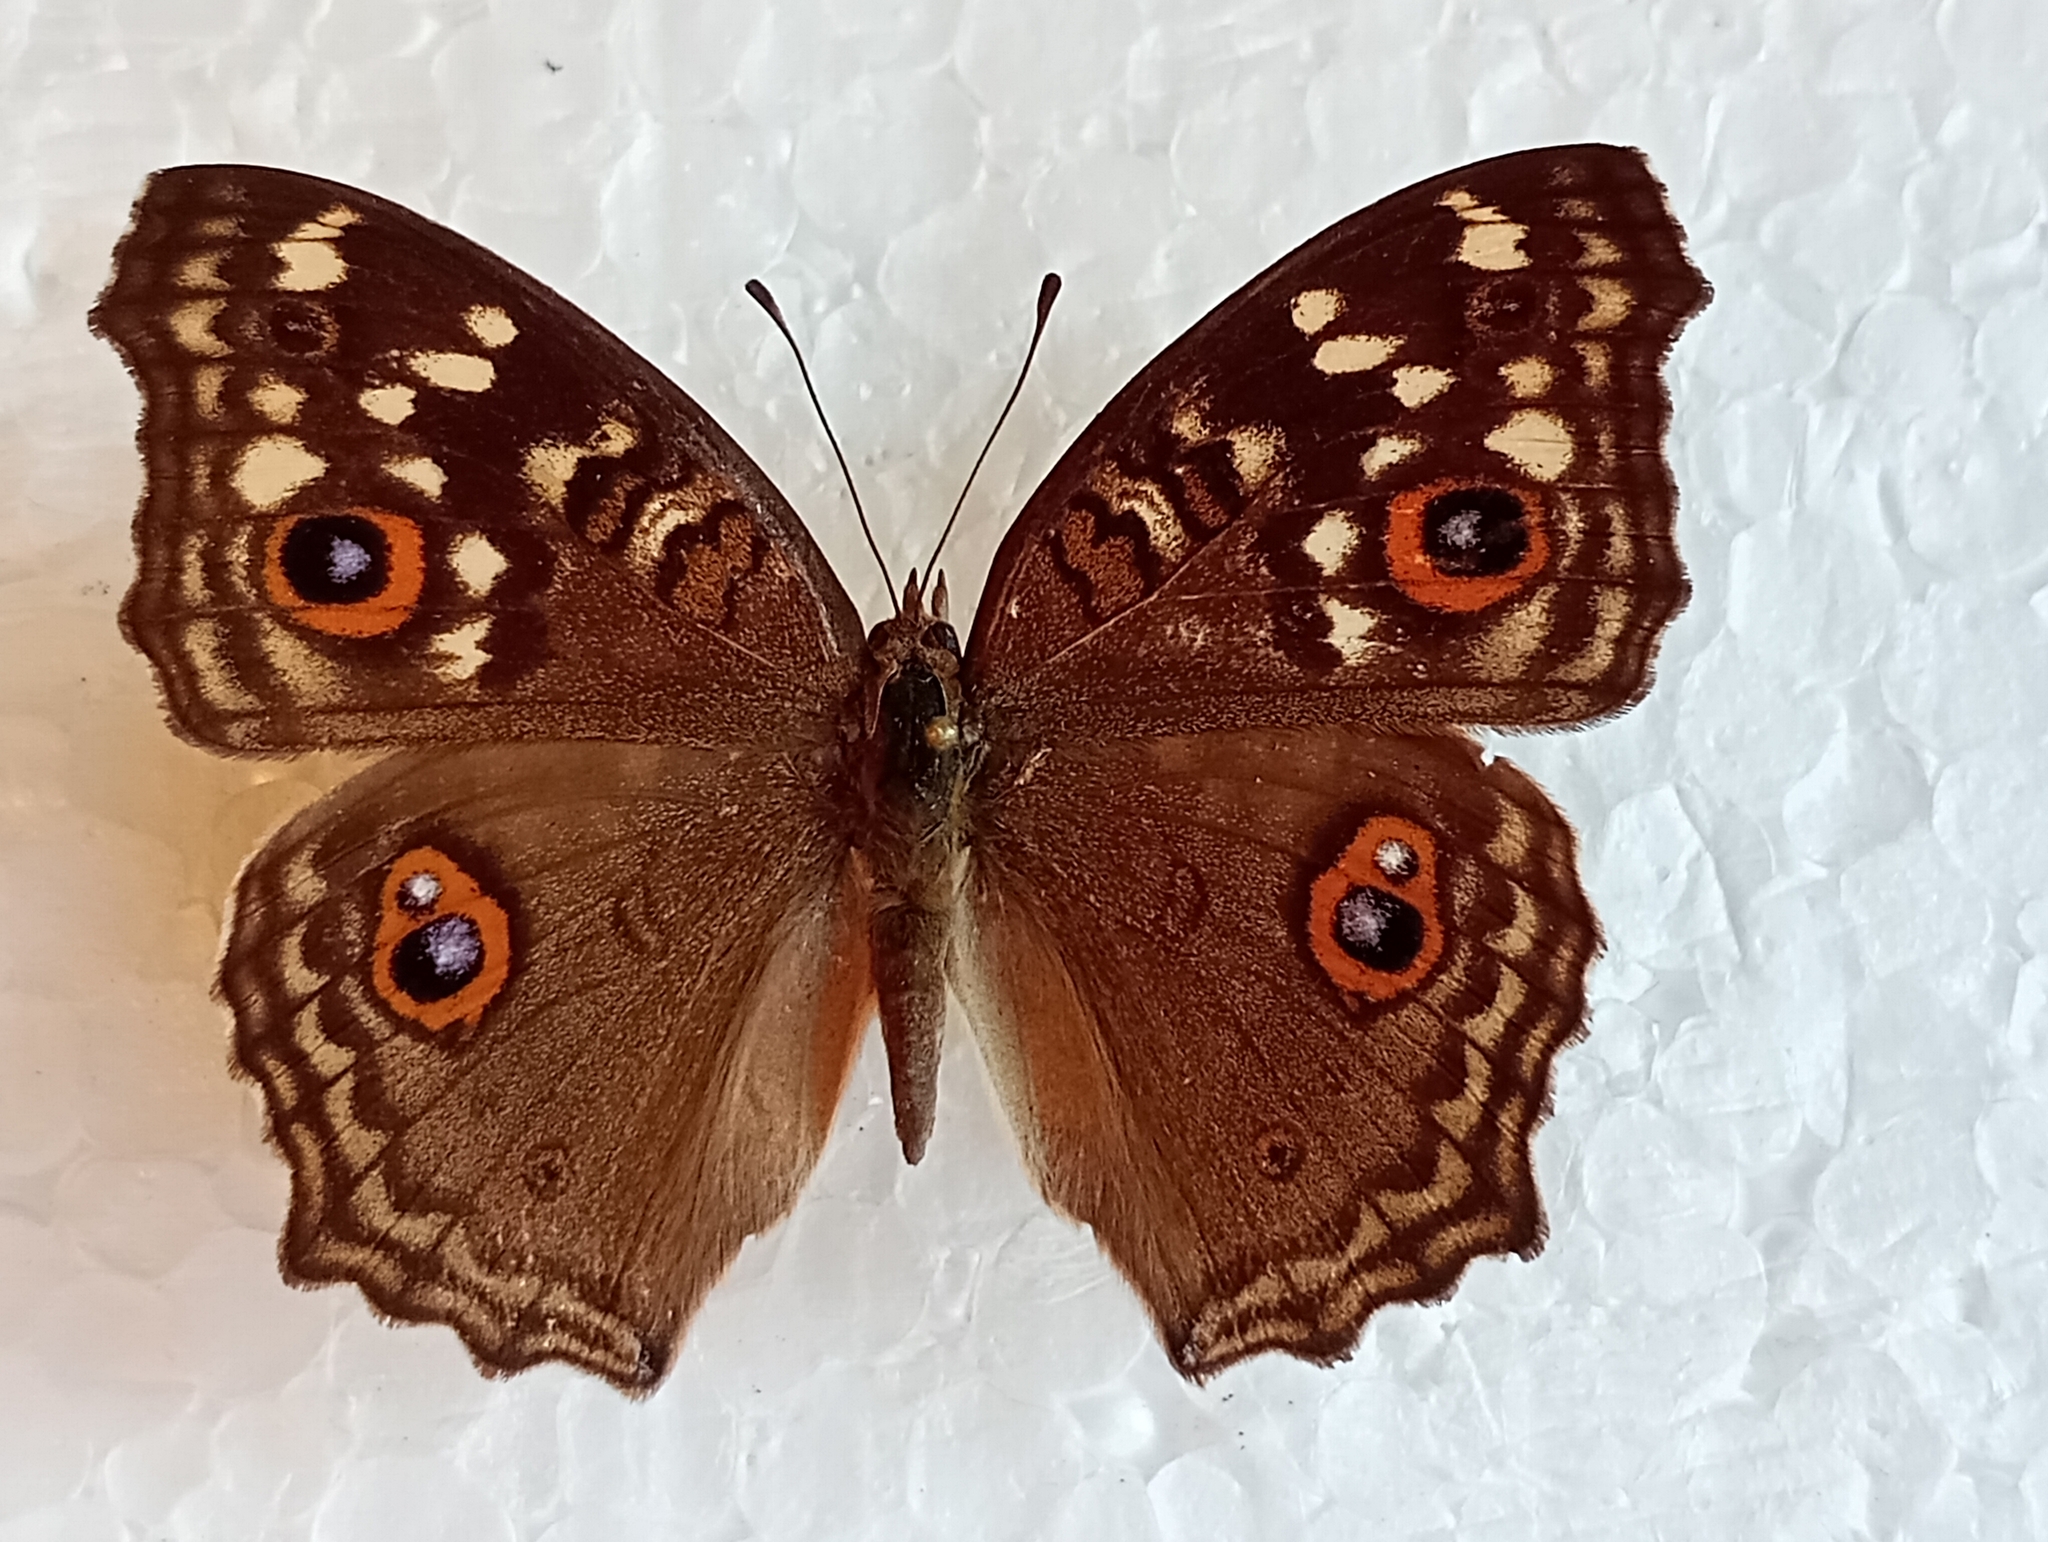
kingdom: Animalia
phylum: Arthropoda
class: Insecta
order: Lepidoptera
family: Nymphalidae
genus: Junonia
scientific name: Junonia lemonias
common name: Lemon pansy
